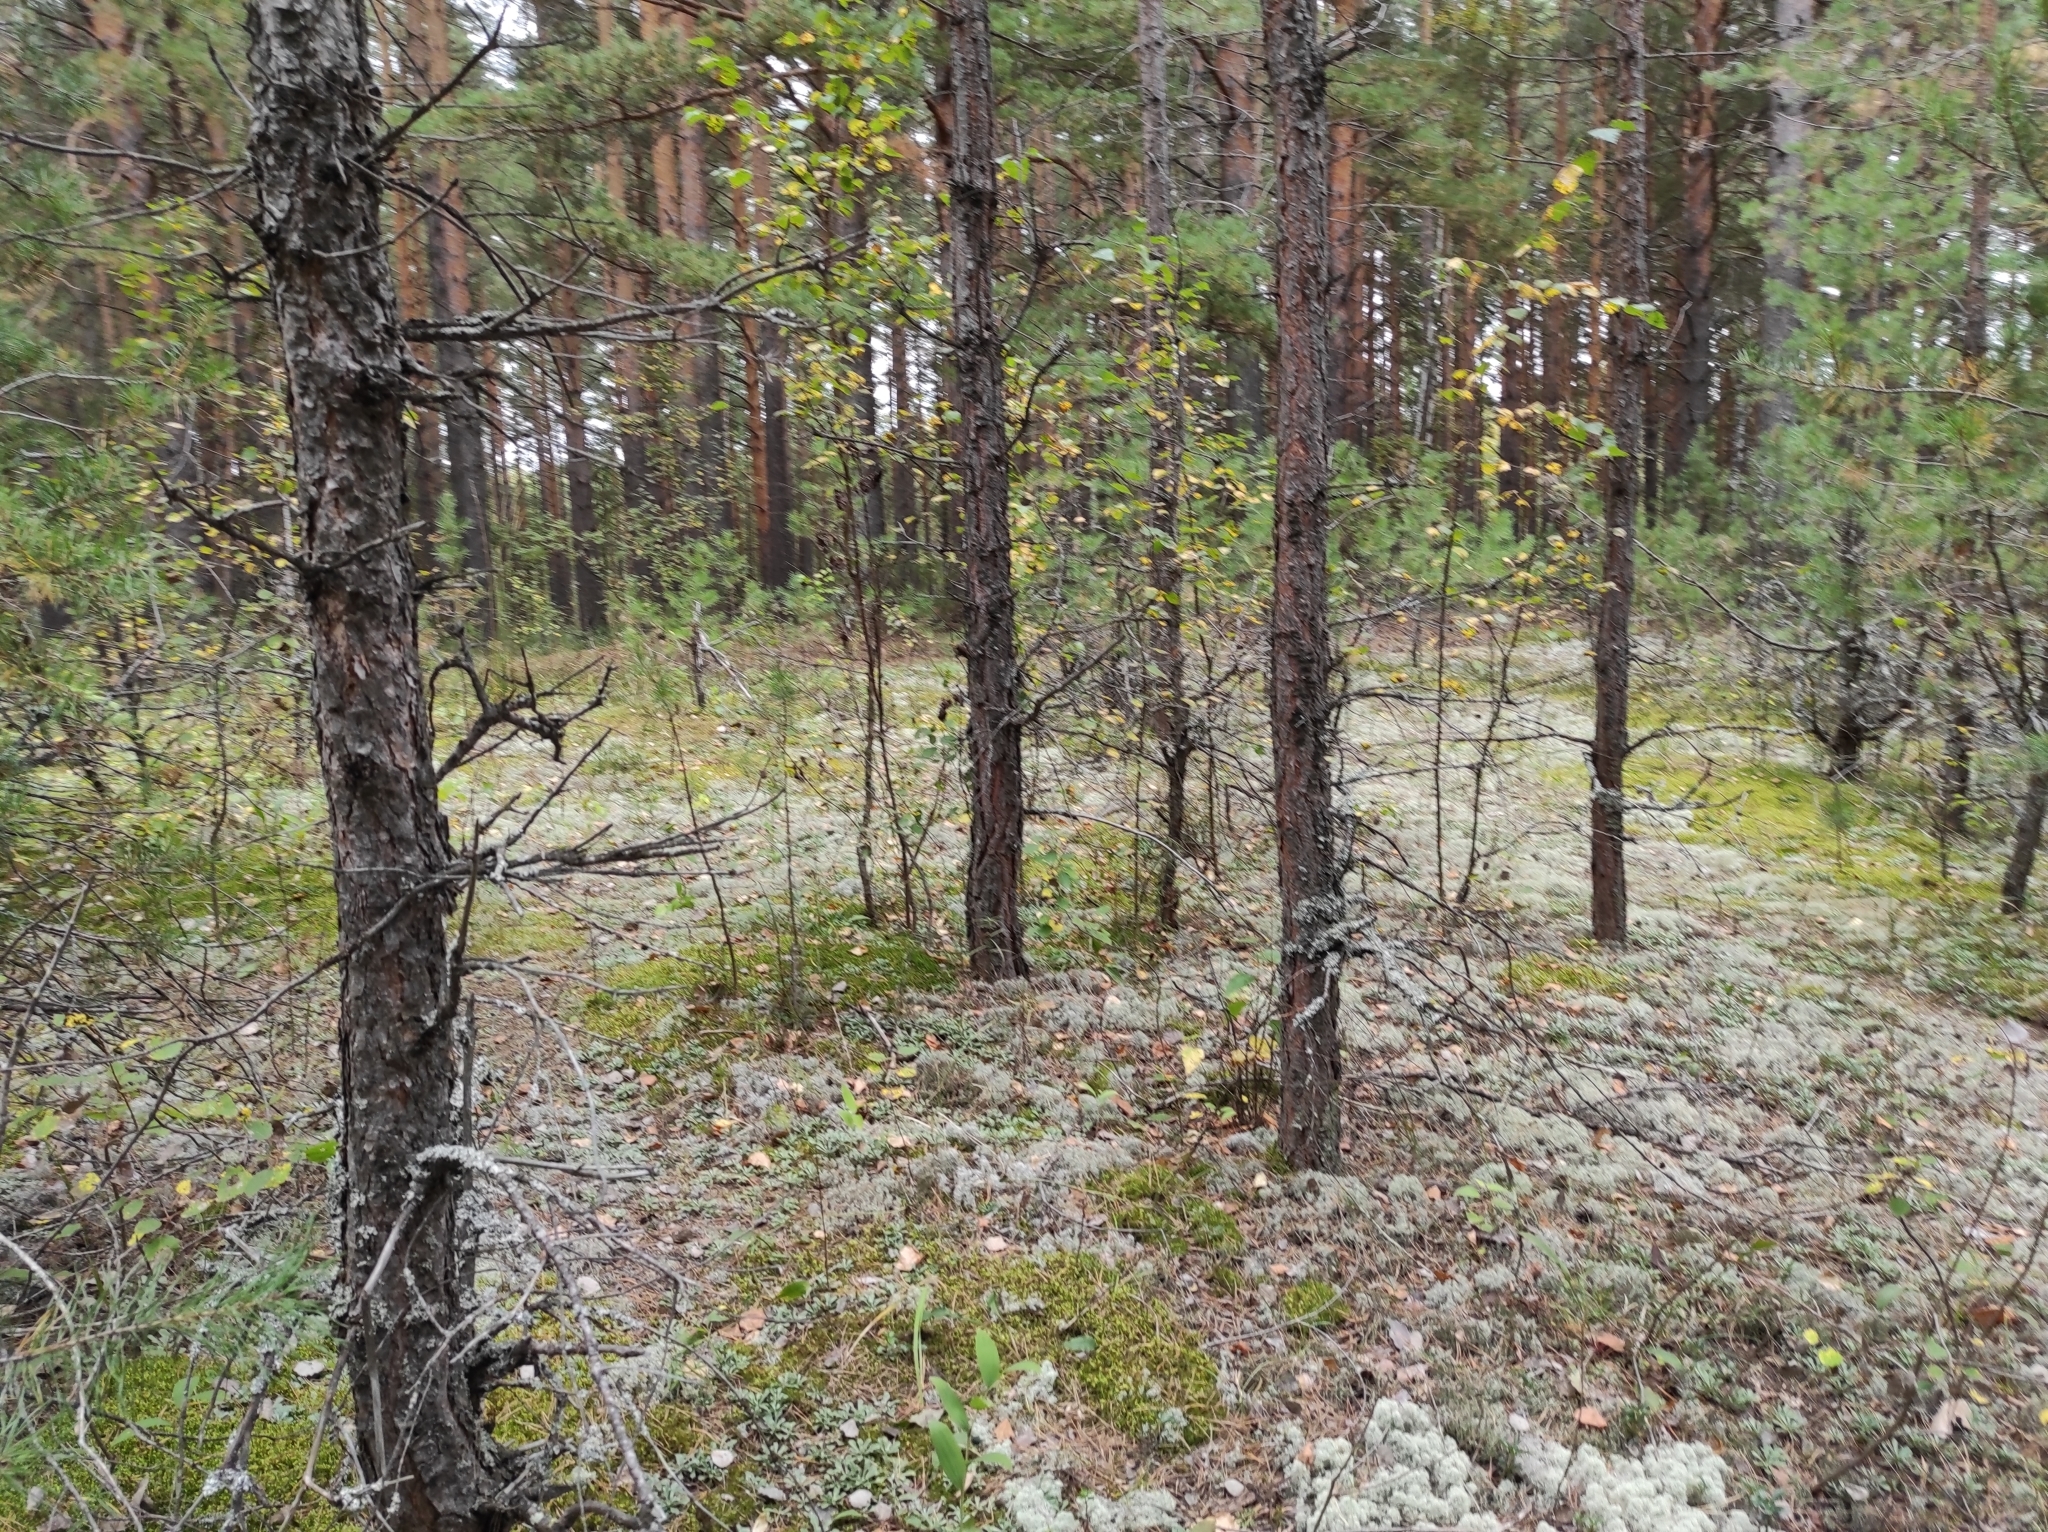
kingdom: Plantae
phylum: Tracheophyta
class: Pinopsida
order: Pinales
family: Pinaceae
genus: Pinus
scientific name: Pinus sylvestris
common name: Scots pine
